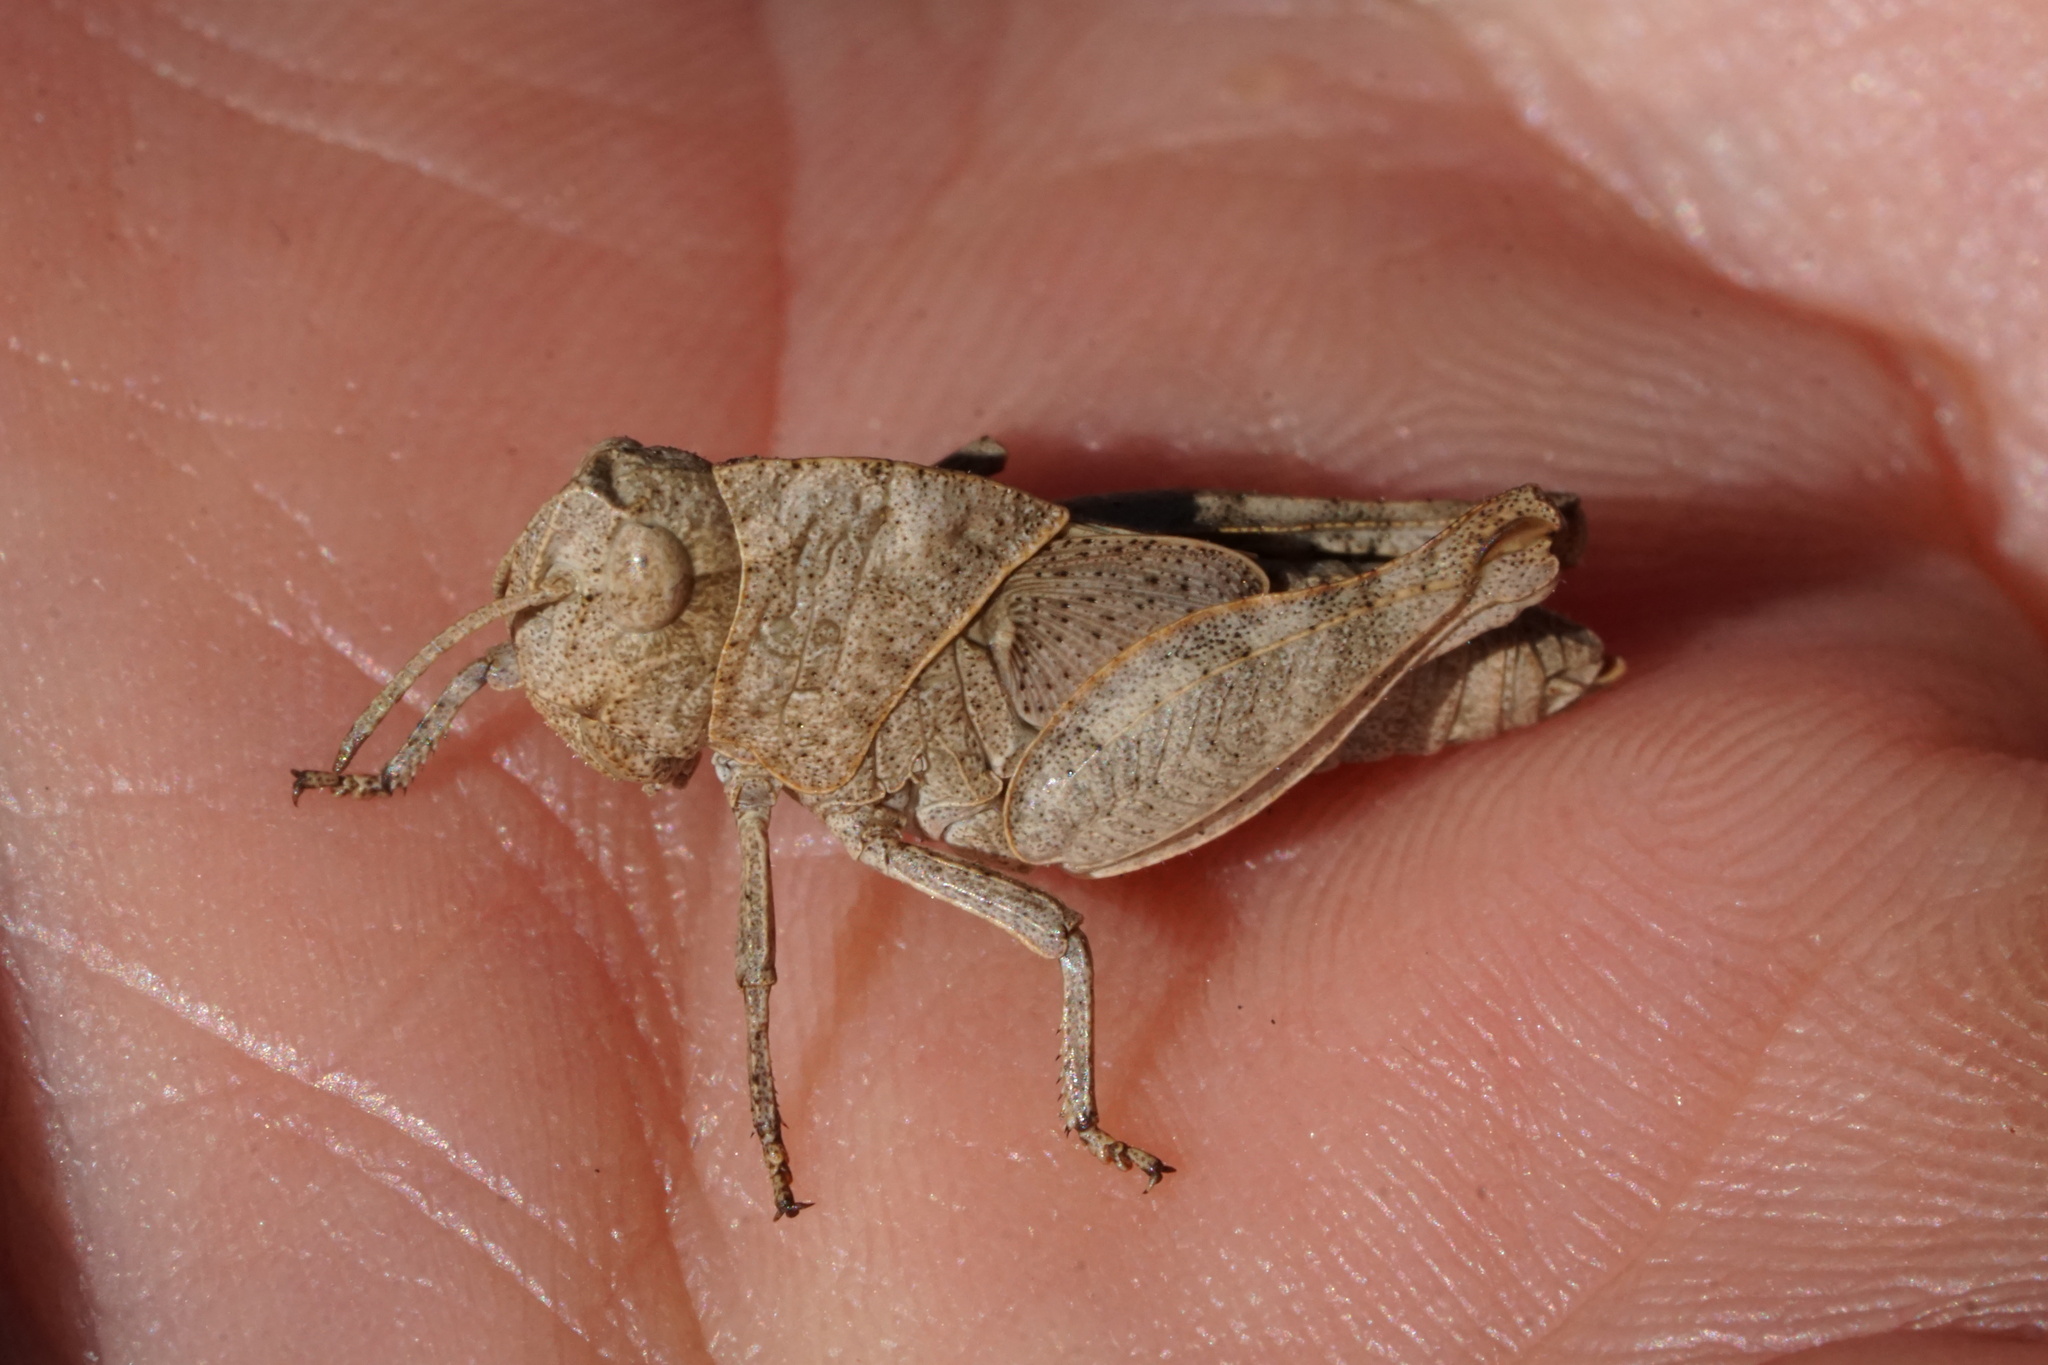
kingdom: Animalia
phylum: Arthropoda
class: Insecta
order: Orthoptera
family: Acrididae
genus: Arphia
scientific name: Arphia sulphurea
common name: Spring yellow-winged locust
